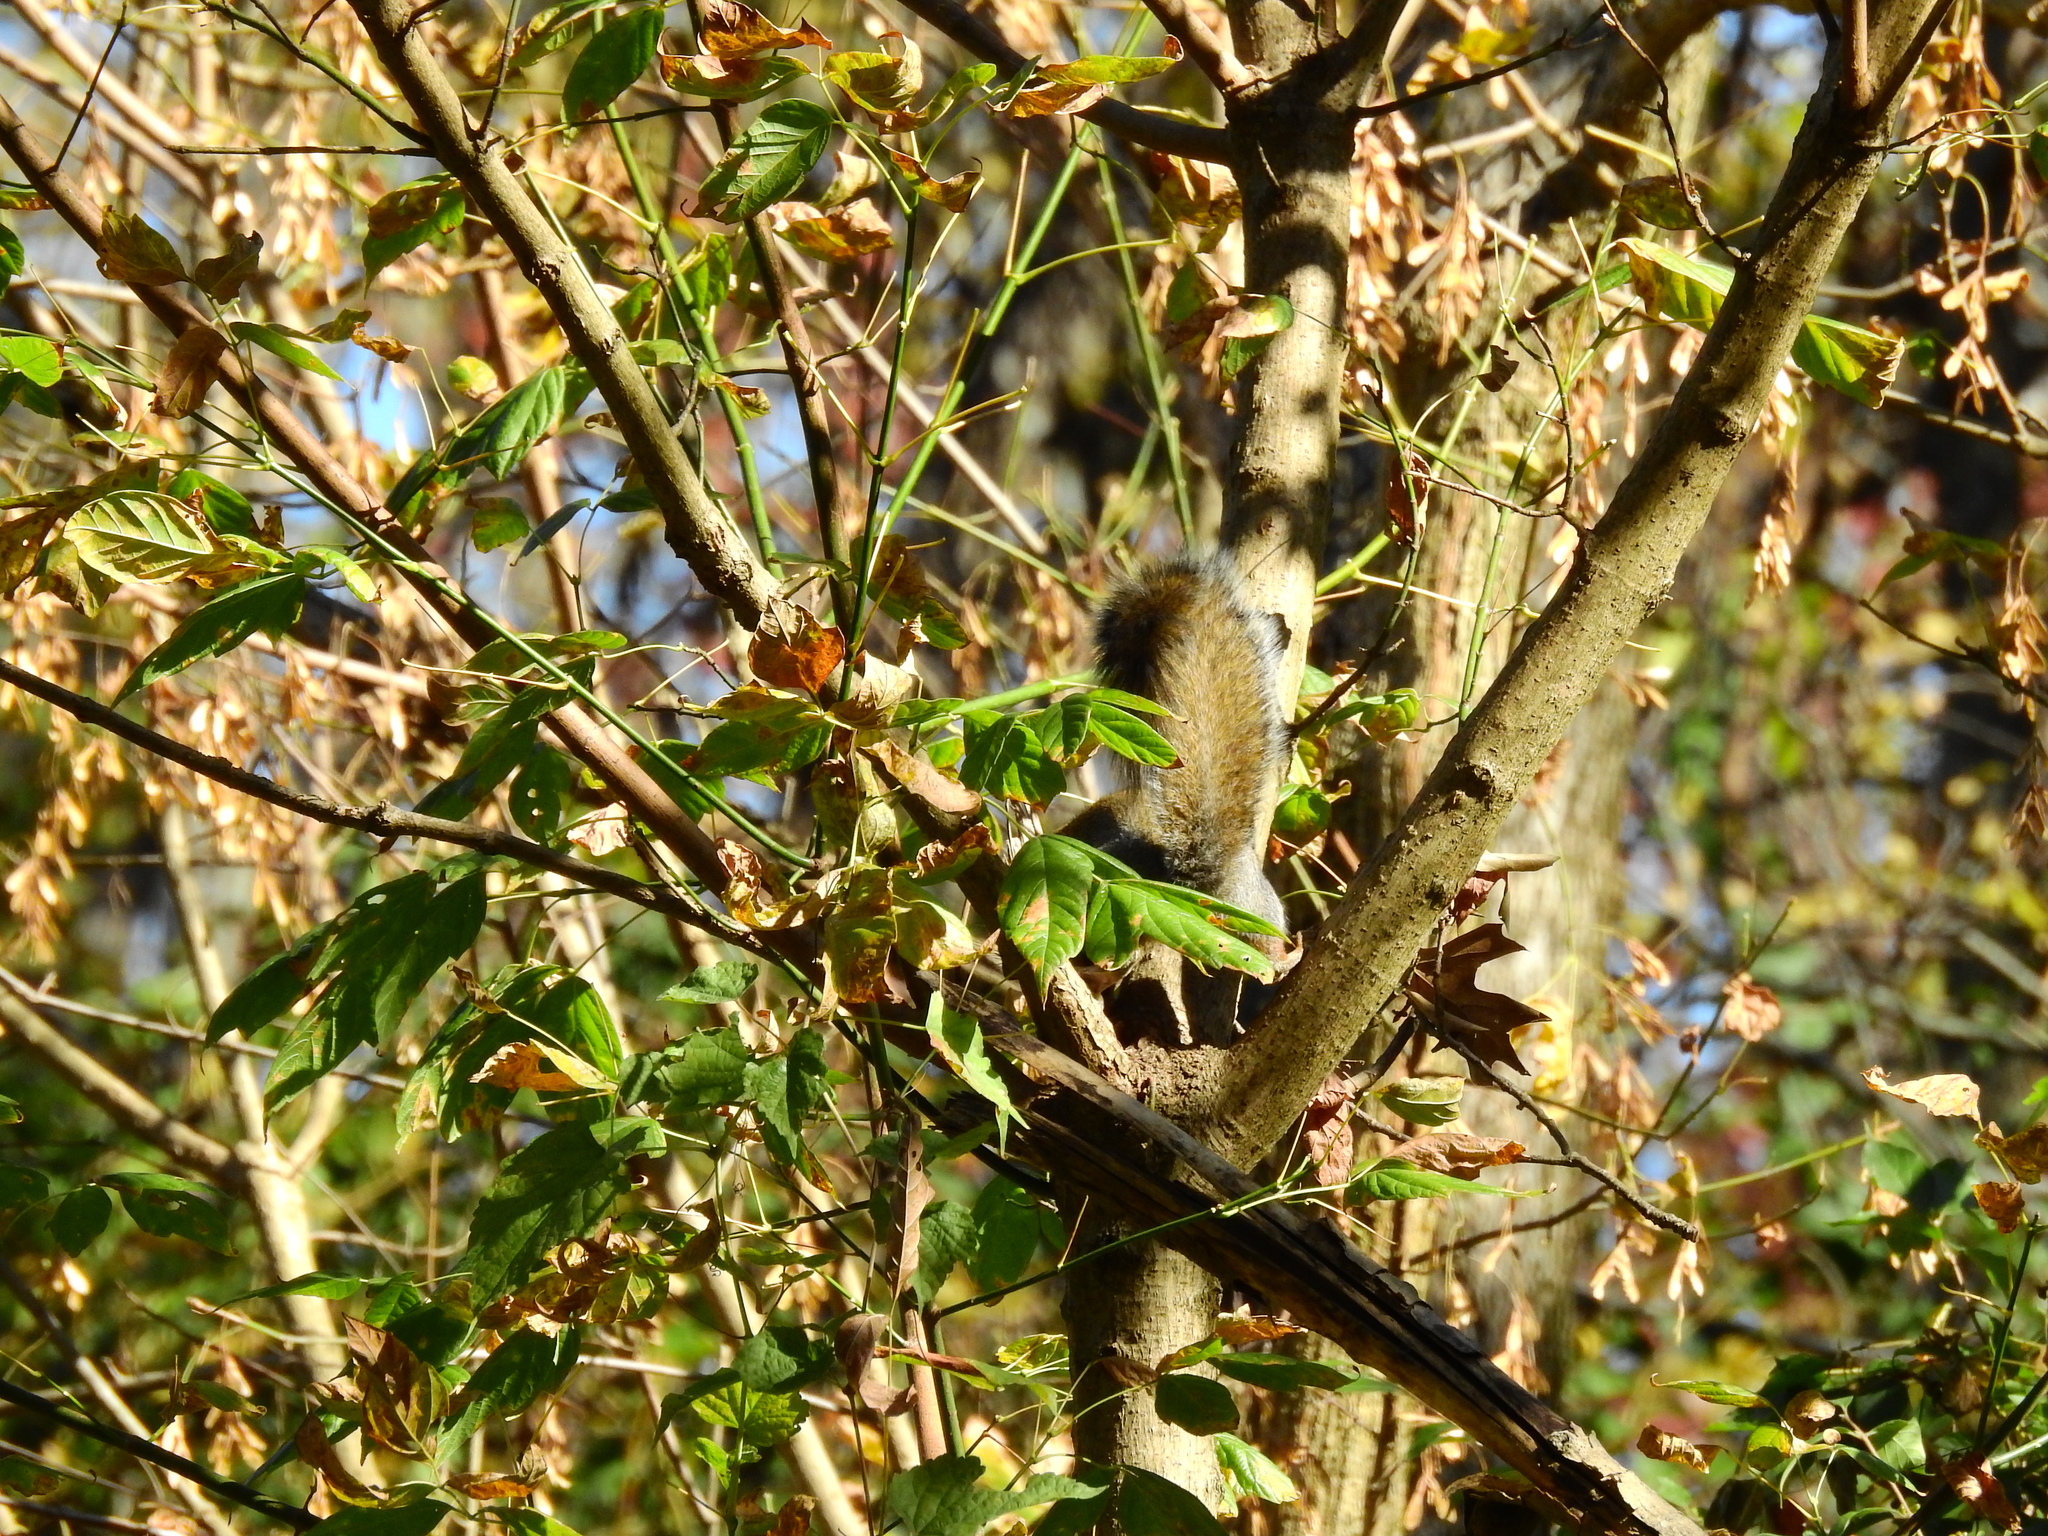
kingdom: Animalia
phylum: Chordata
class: Mammalia
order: Rodentia
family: Sciuridae
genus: Sciurus
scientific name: Sciurus carolinensis
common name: Eastern gray squirrel
